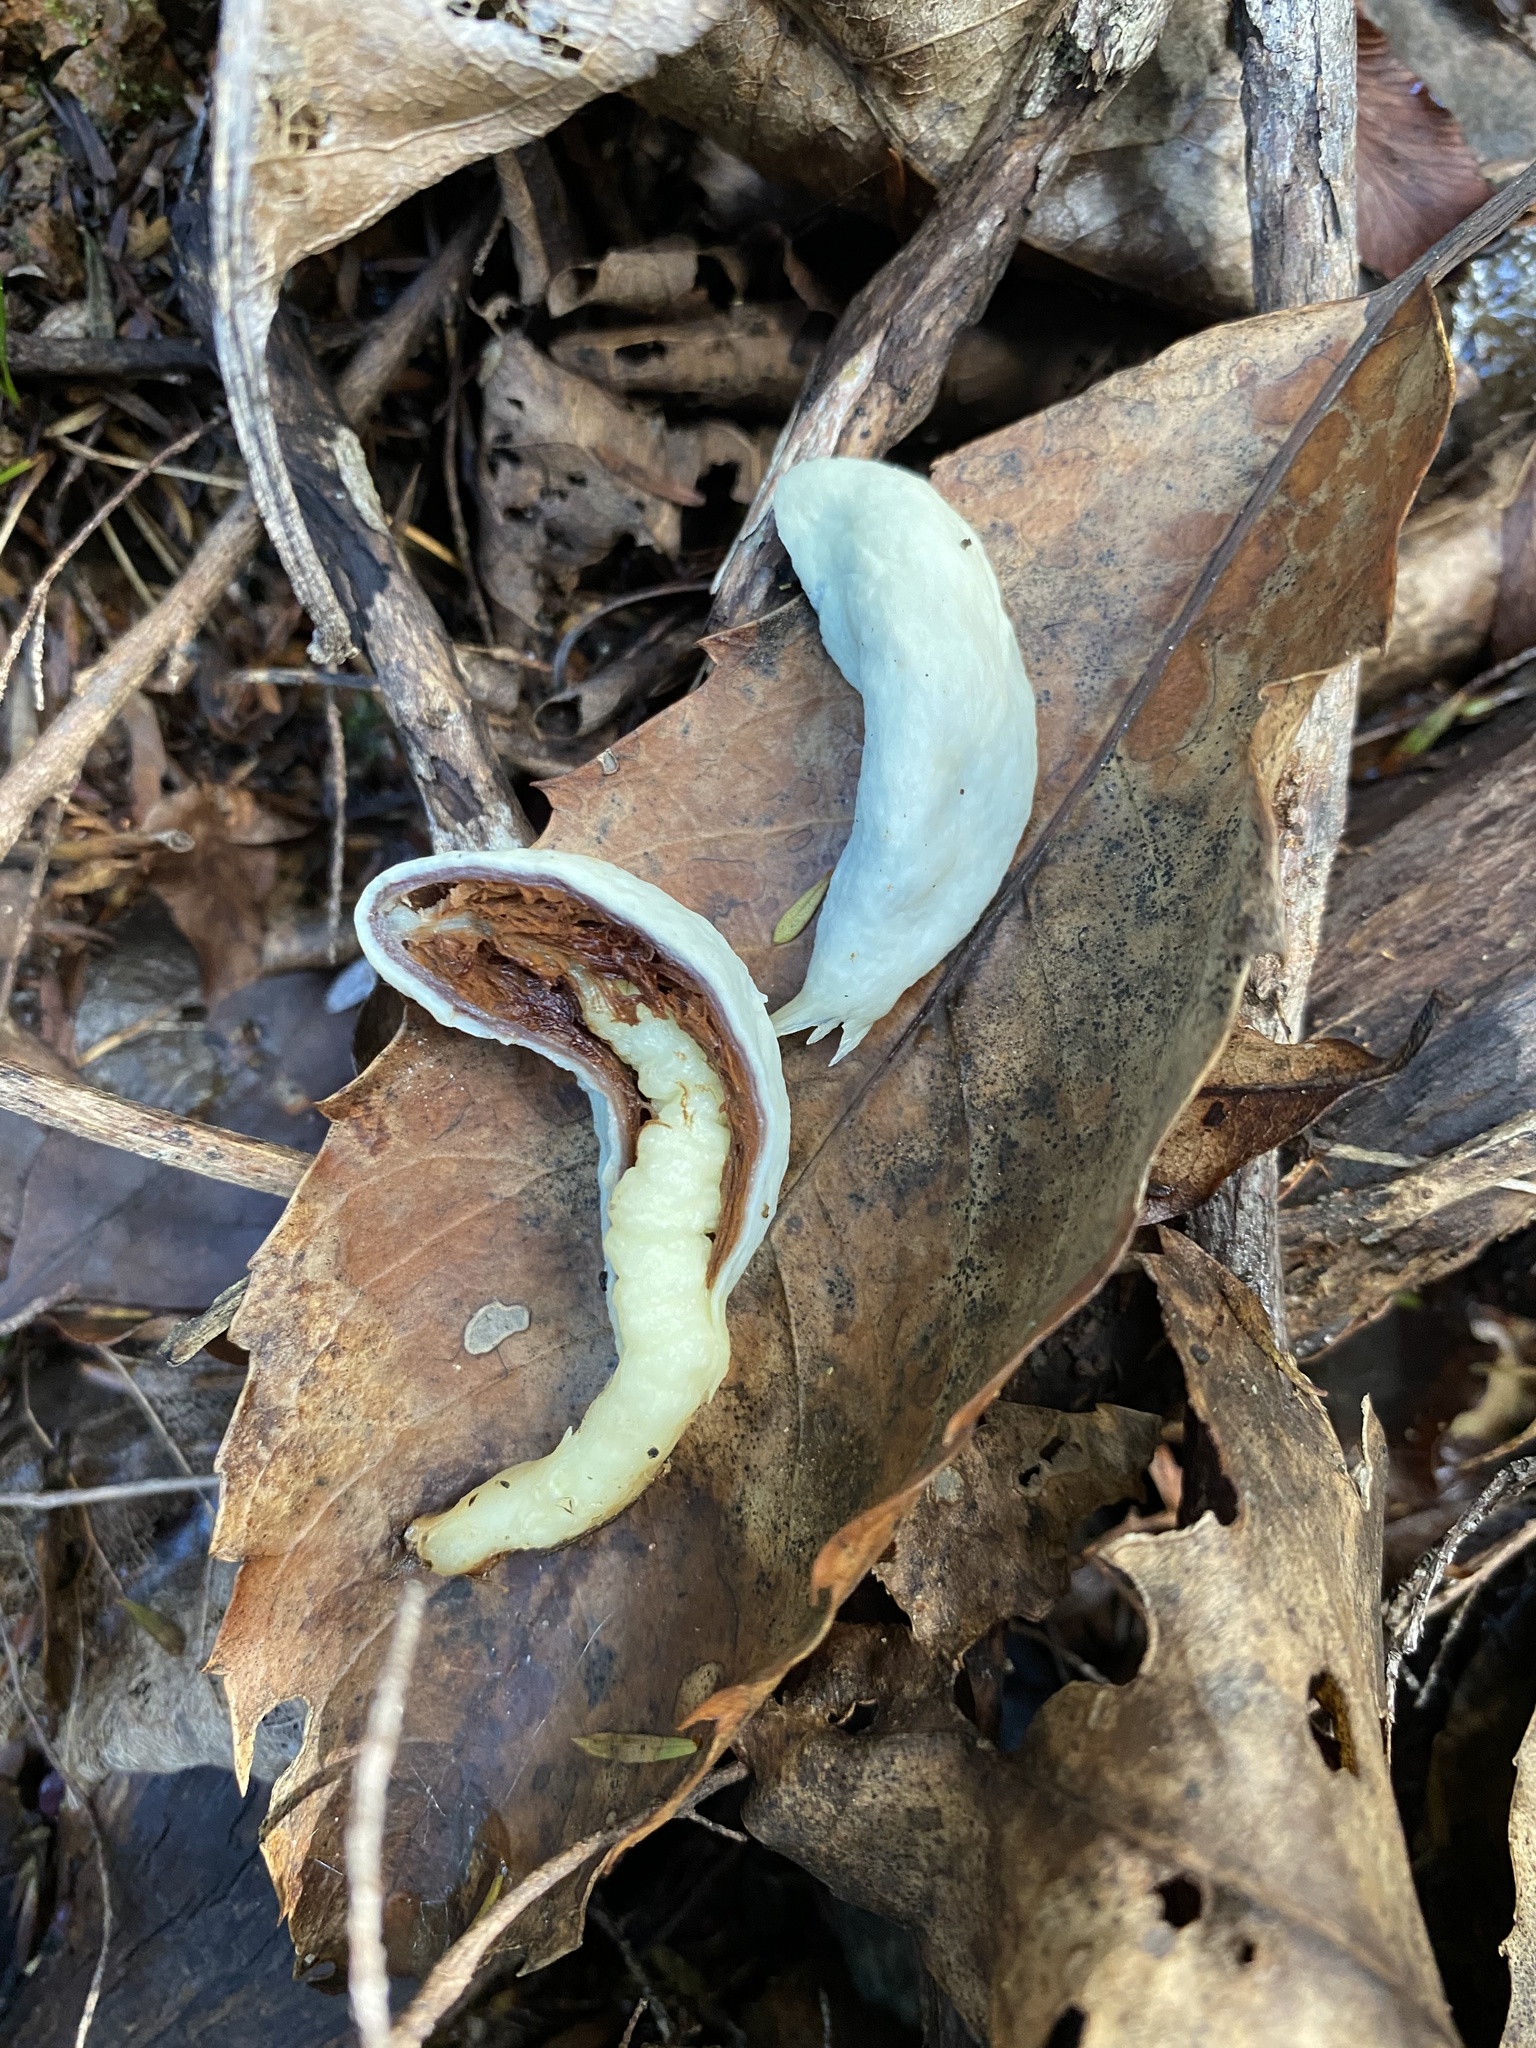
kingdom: Fungi
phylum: Basidiomycota
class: Agaricomycetes
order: Agaricales
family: Agaricaceae
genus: Clavogaster
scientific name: Clavogaster virescens
